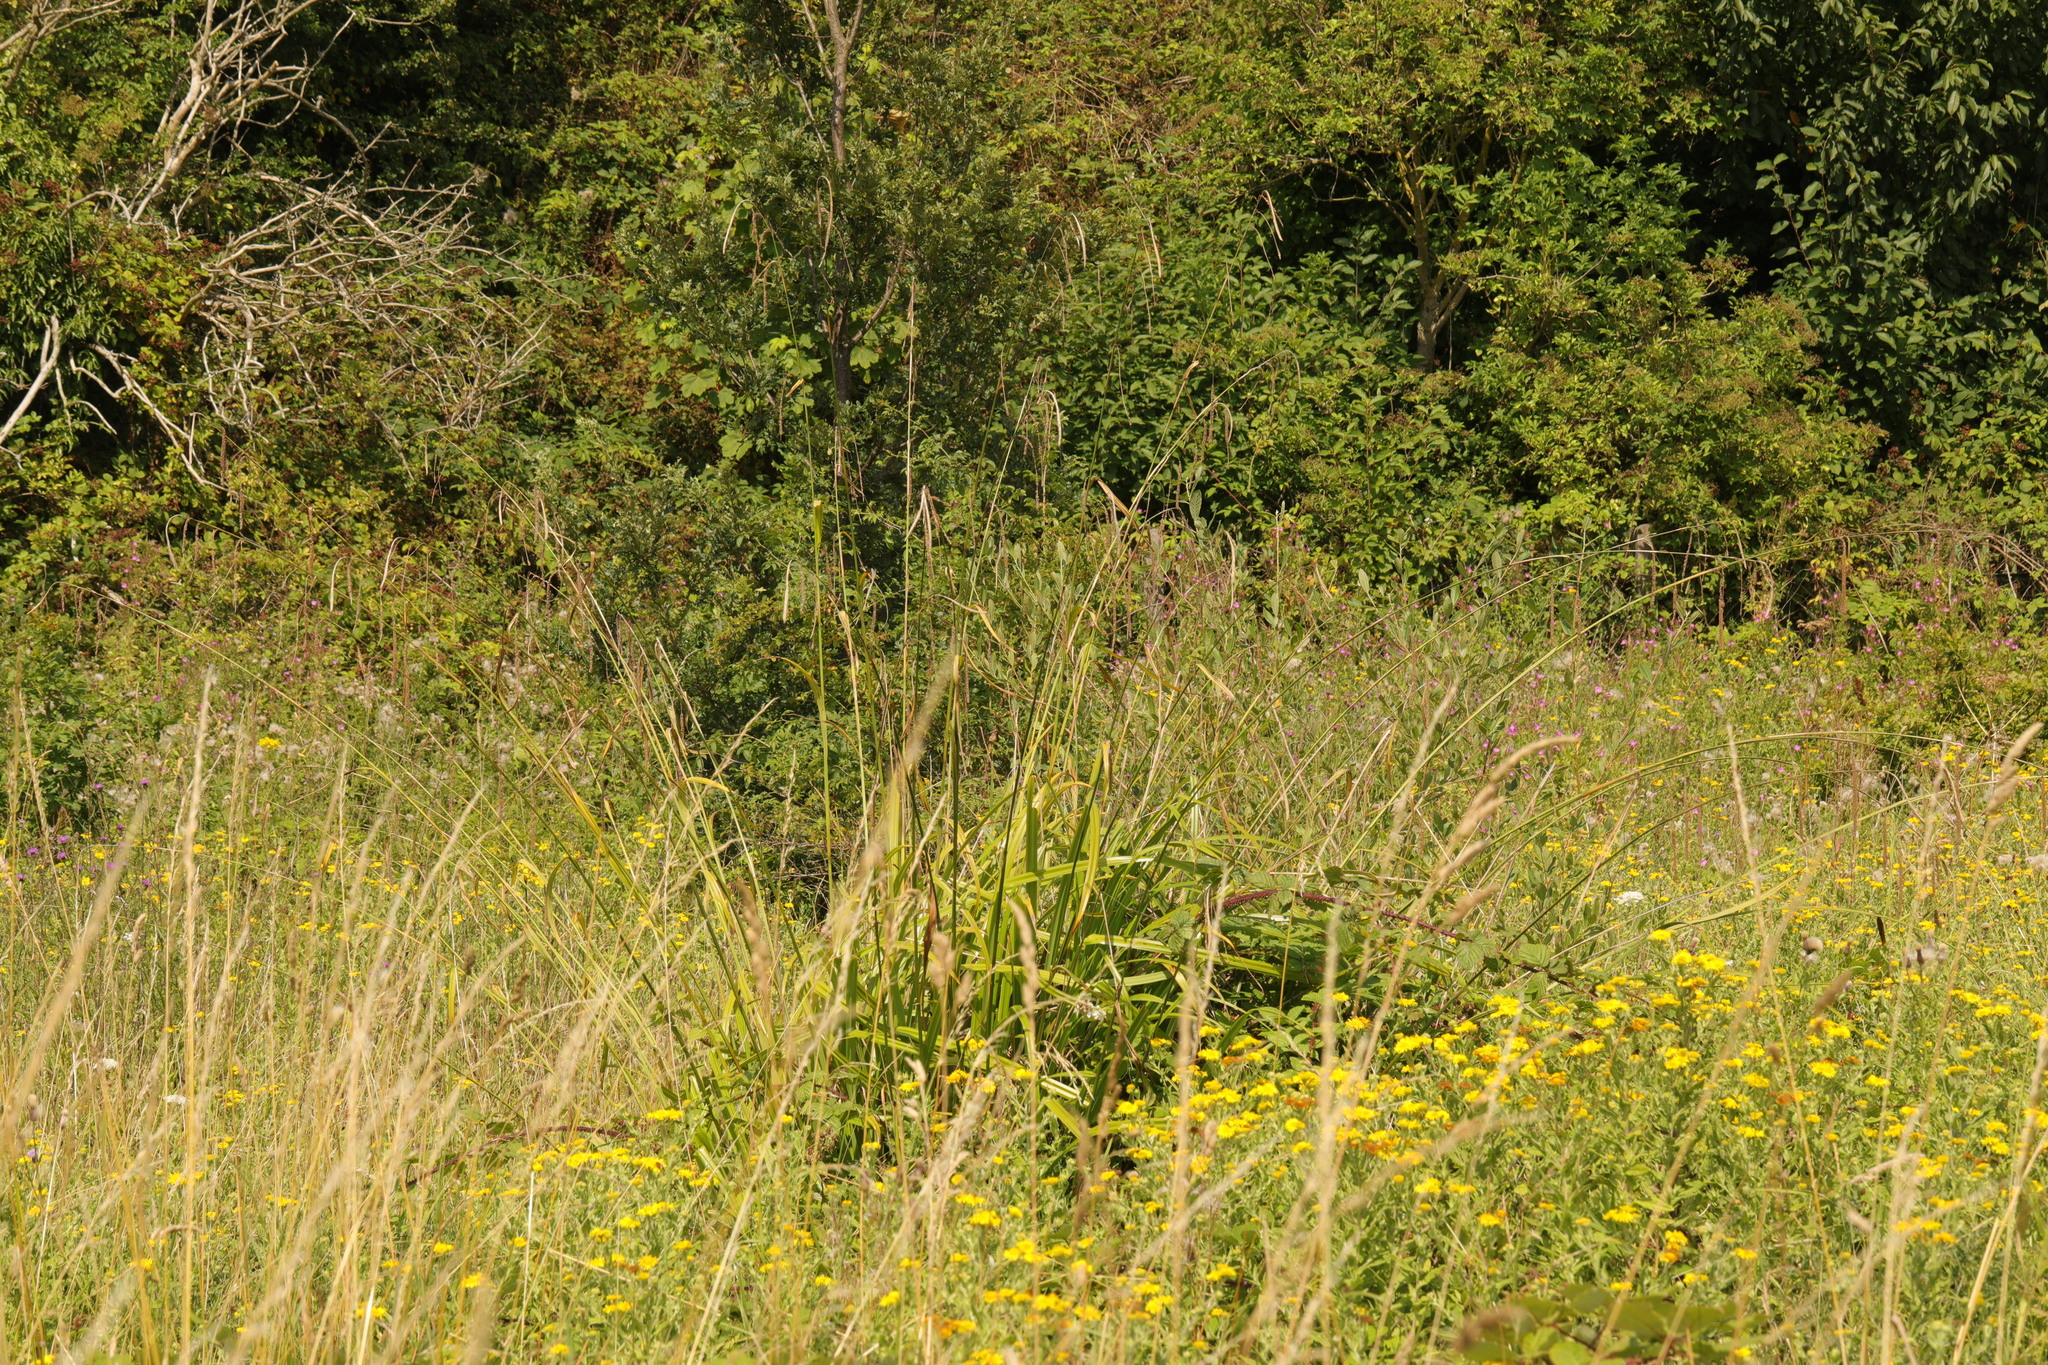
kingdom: Plantae
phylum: Tracheophyta
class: Liliopsida
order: Poales
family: Cyperaceae
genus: Carex
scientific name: Carex pendula
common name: Pendulous sedge
